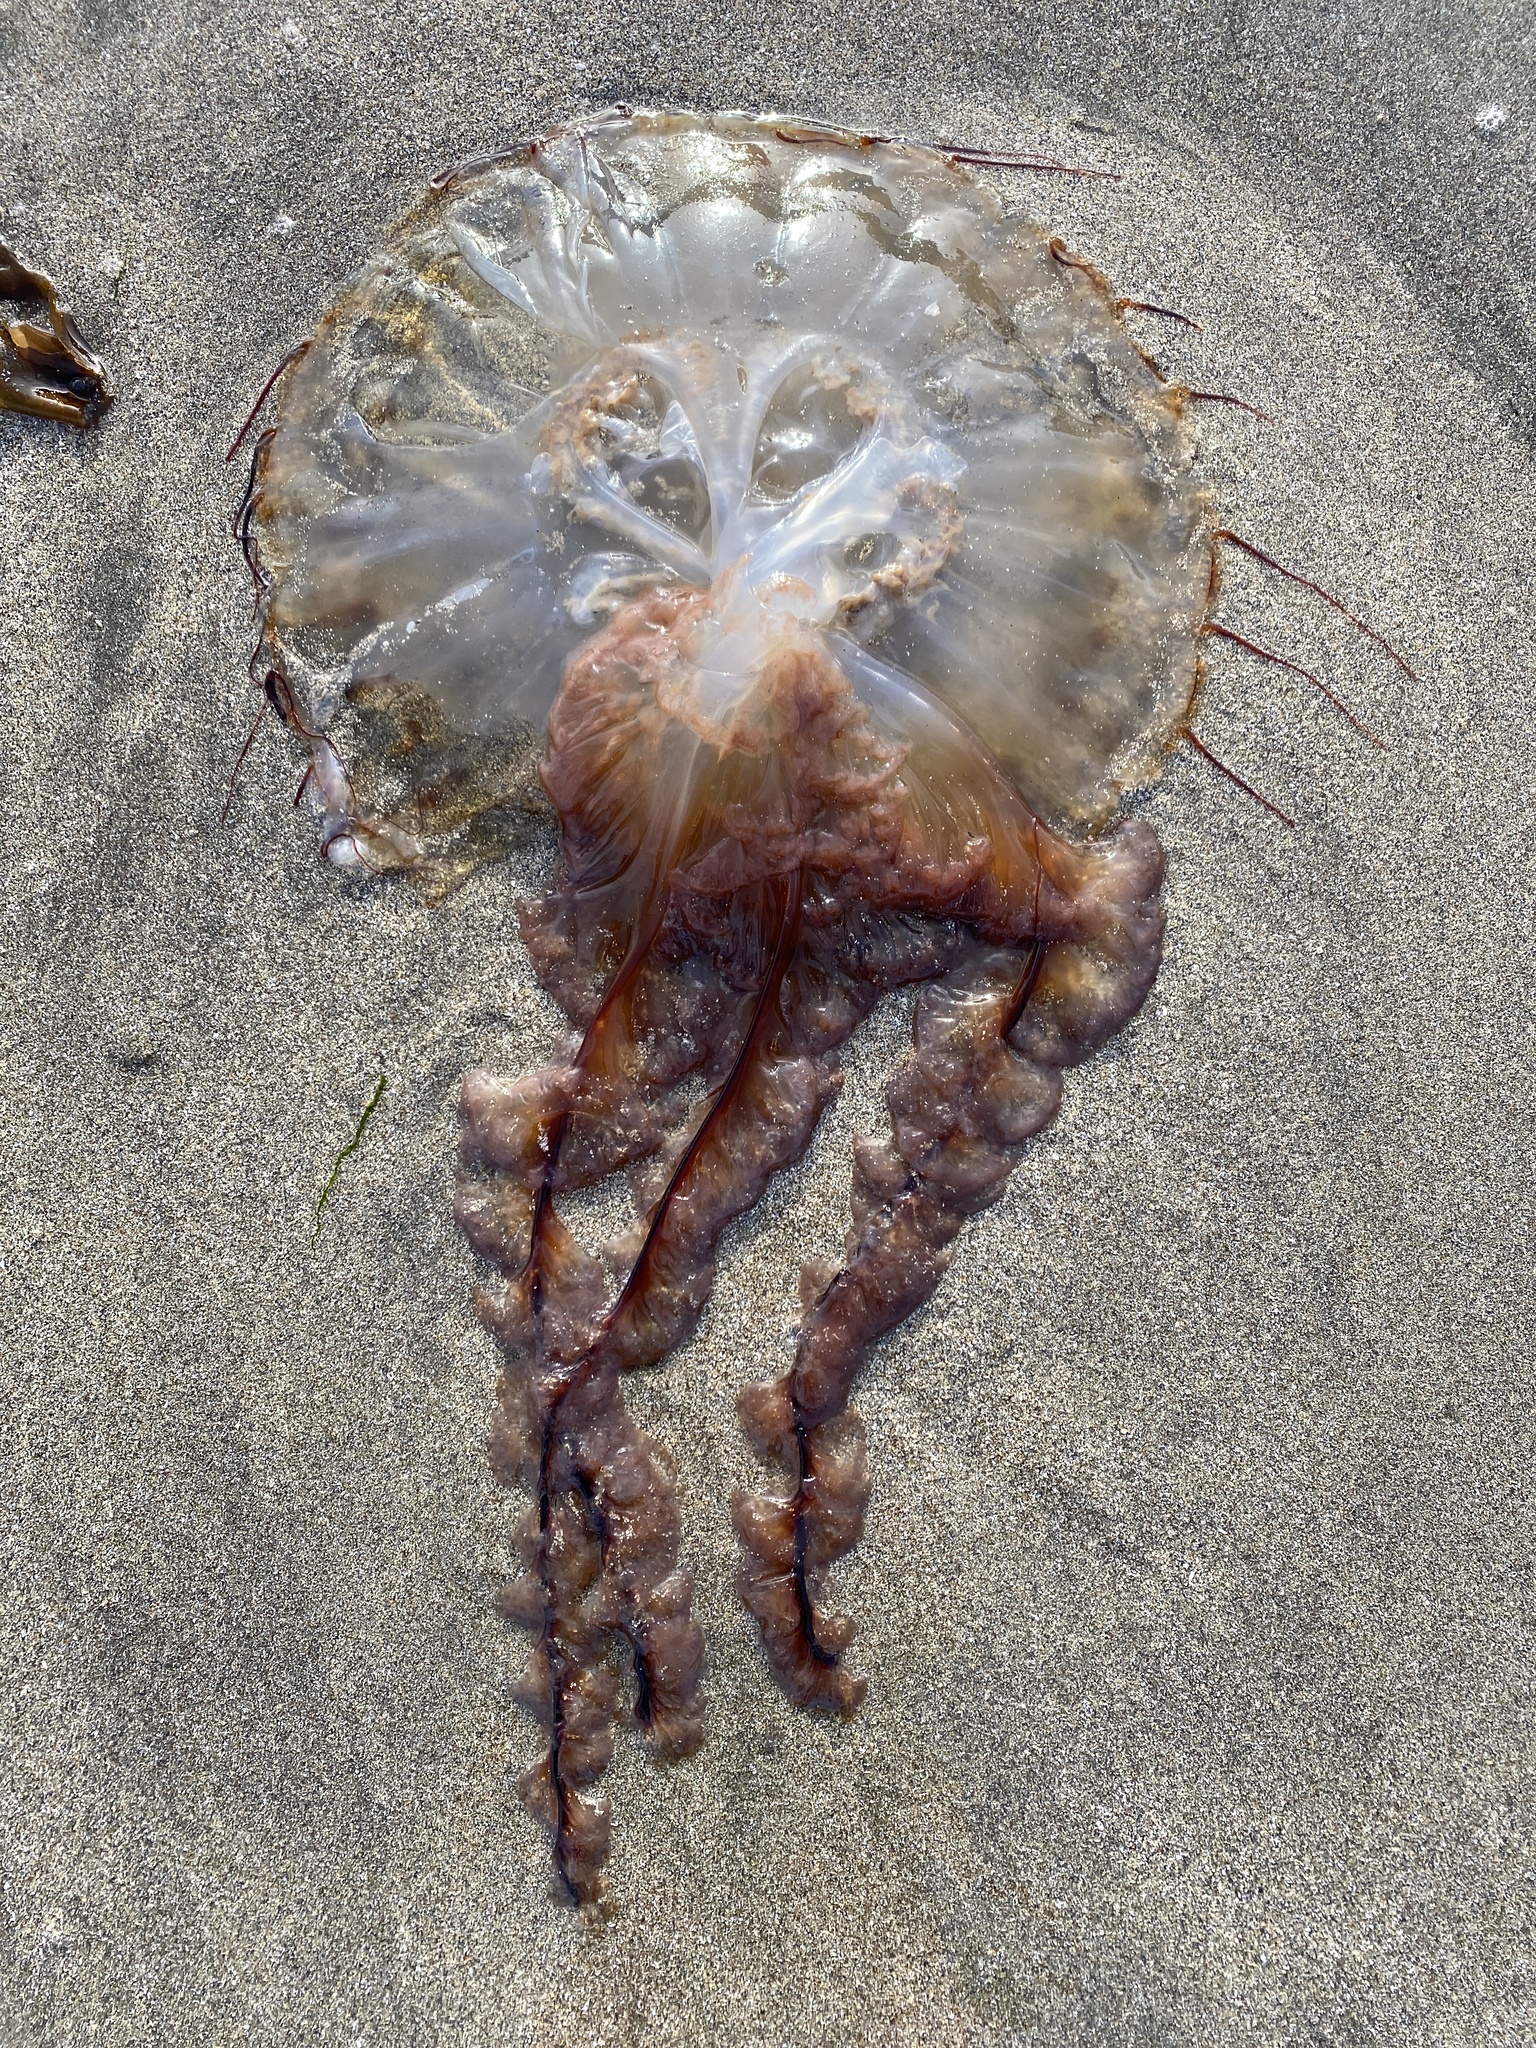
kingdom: Animalia
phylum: Cnidaria
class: Scyphozoa
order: Semaeostomeae
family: Pelagiidae
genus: Chrysaora
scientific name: Chrysaora fuscescens
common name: Sea nettle
